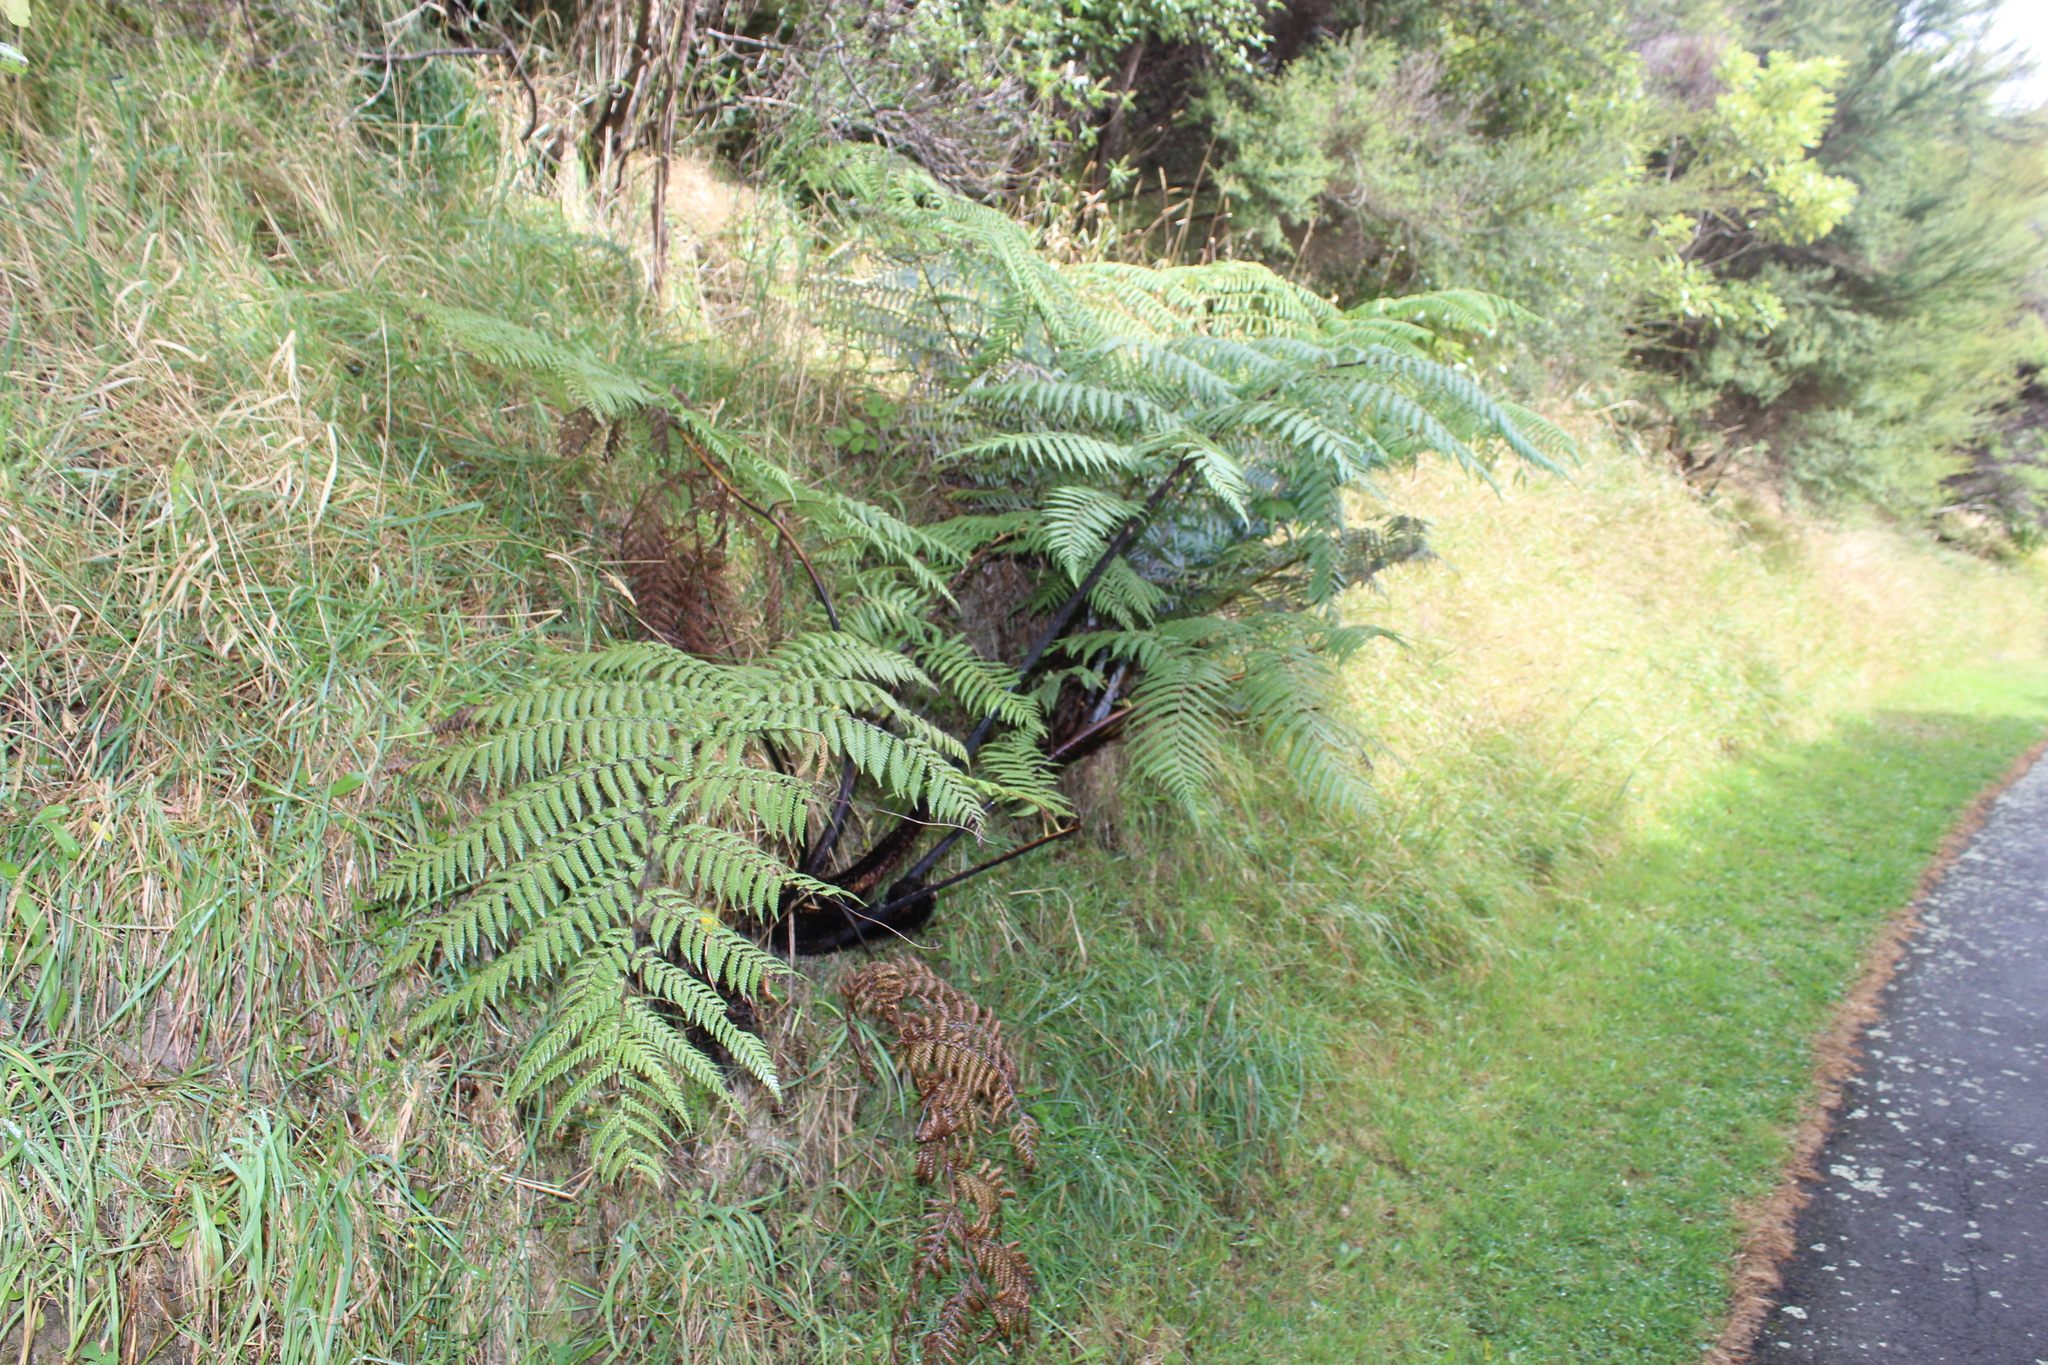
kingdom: Plantae
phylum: Tracheophyta
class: Polypodiopsida
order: Cyatheales
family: Cyatheaceae
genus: Sphaeropteris
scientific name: Sphaeropteris medullaris
